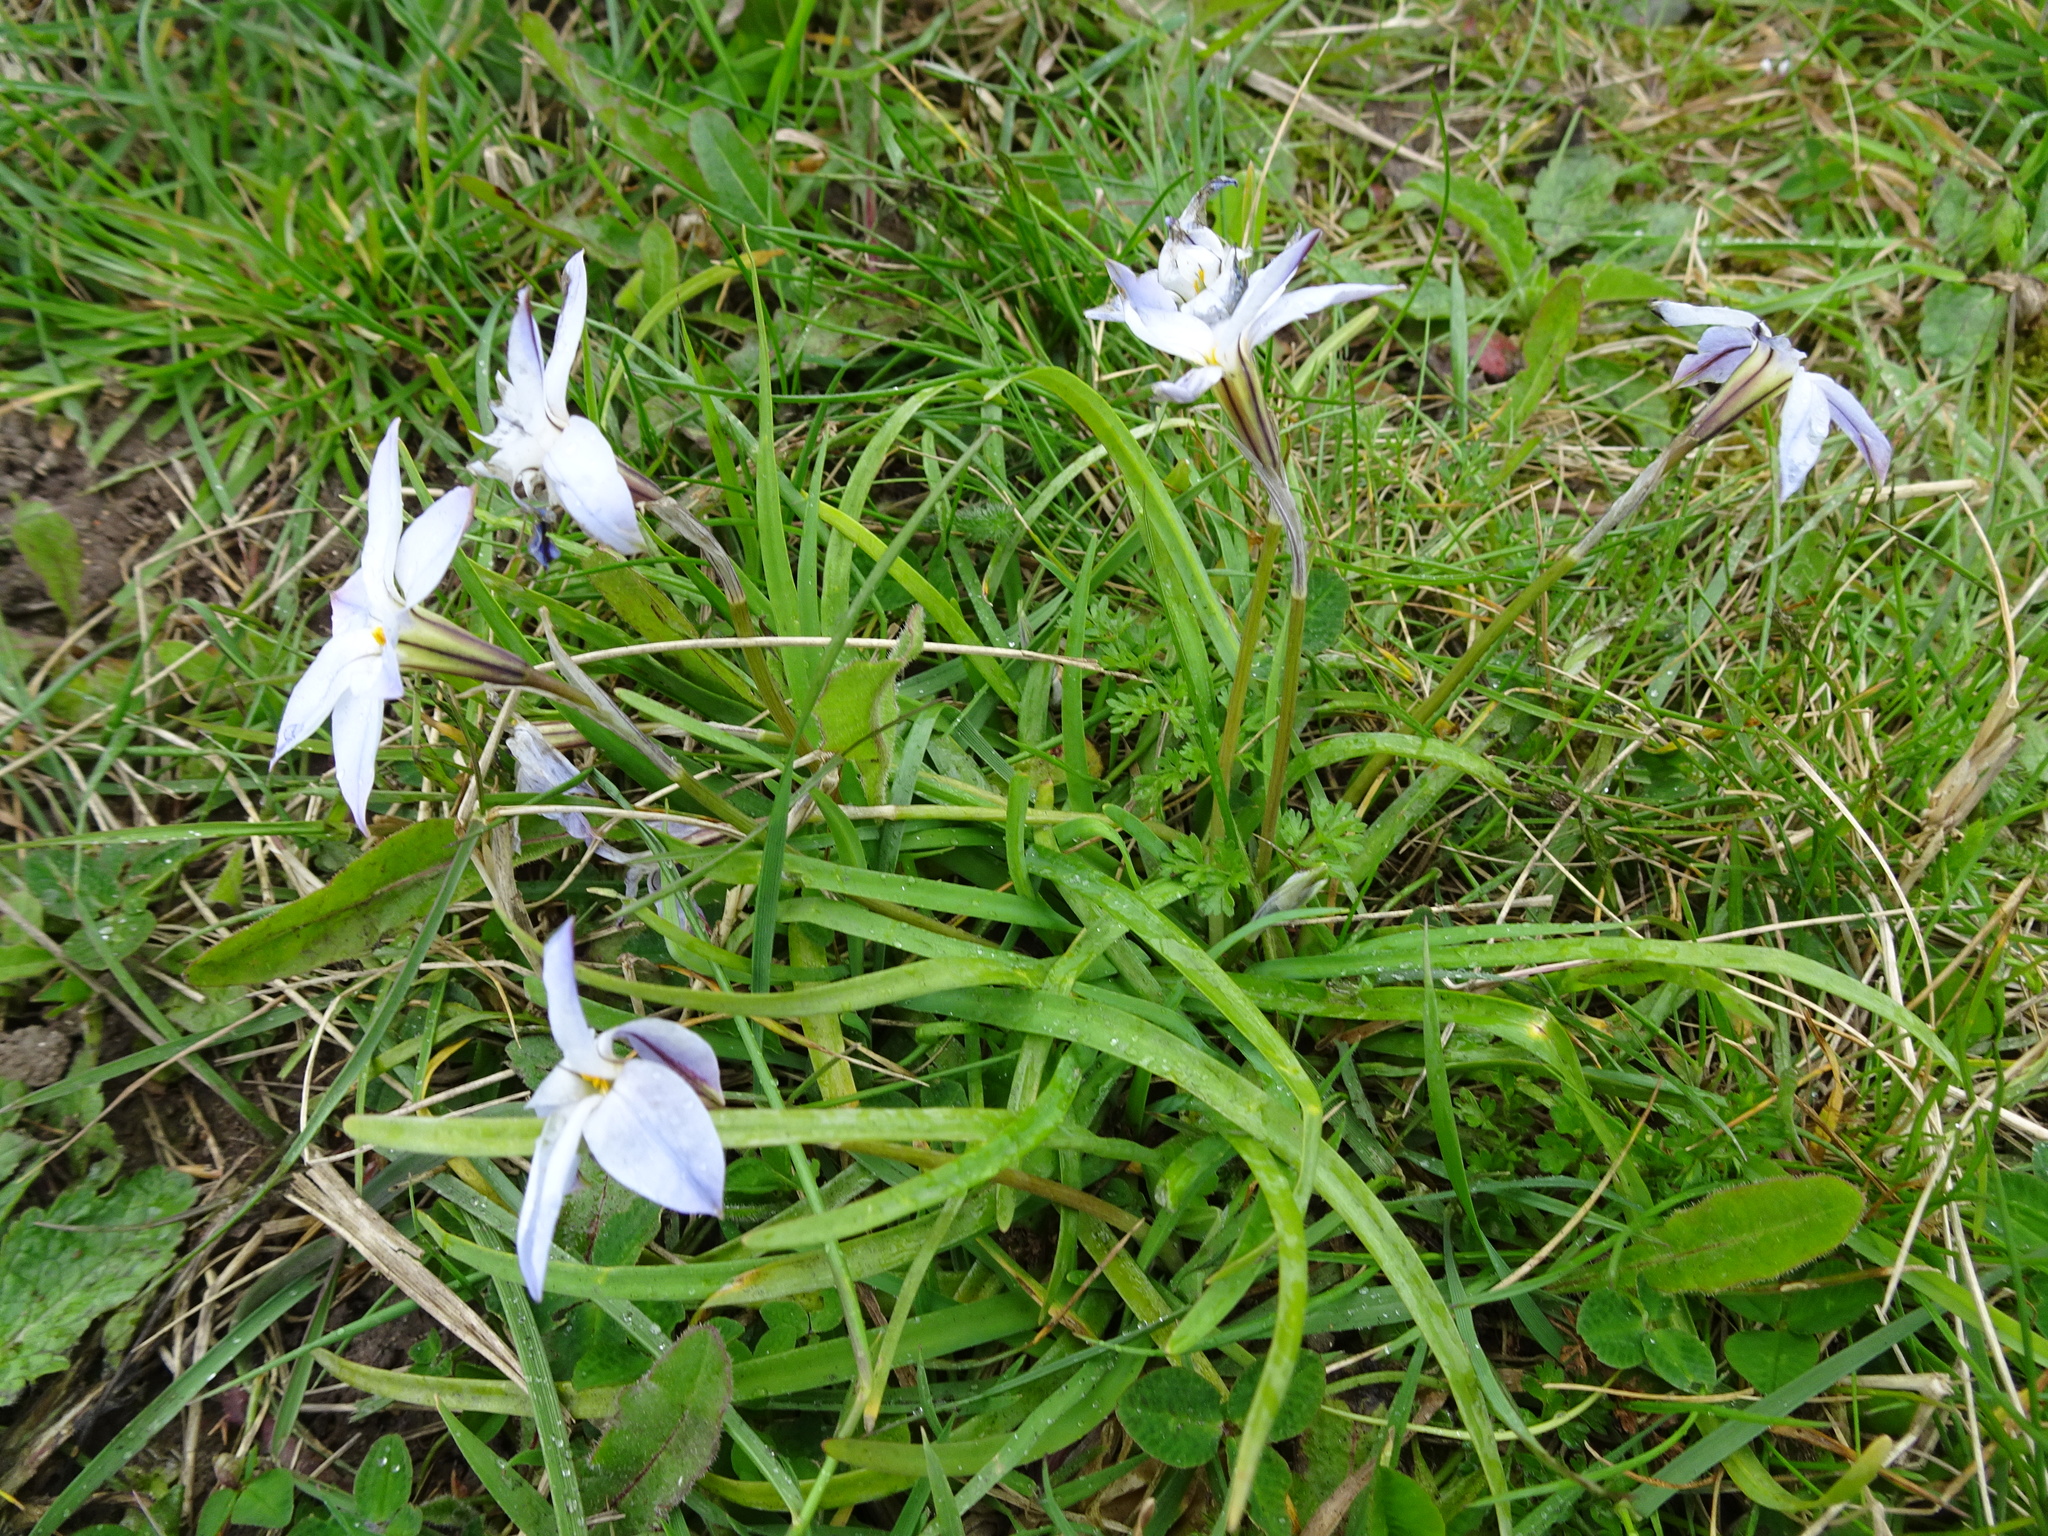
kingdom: Plantae
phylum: Tracheophyta
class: Liliopsida
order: Asparagales
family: Amaryllidaceae
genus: Ipheion
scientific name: Ipheion uniflorum
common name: Spring starflower
